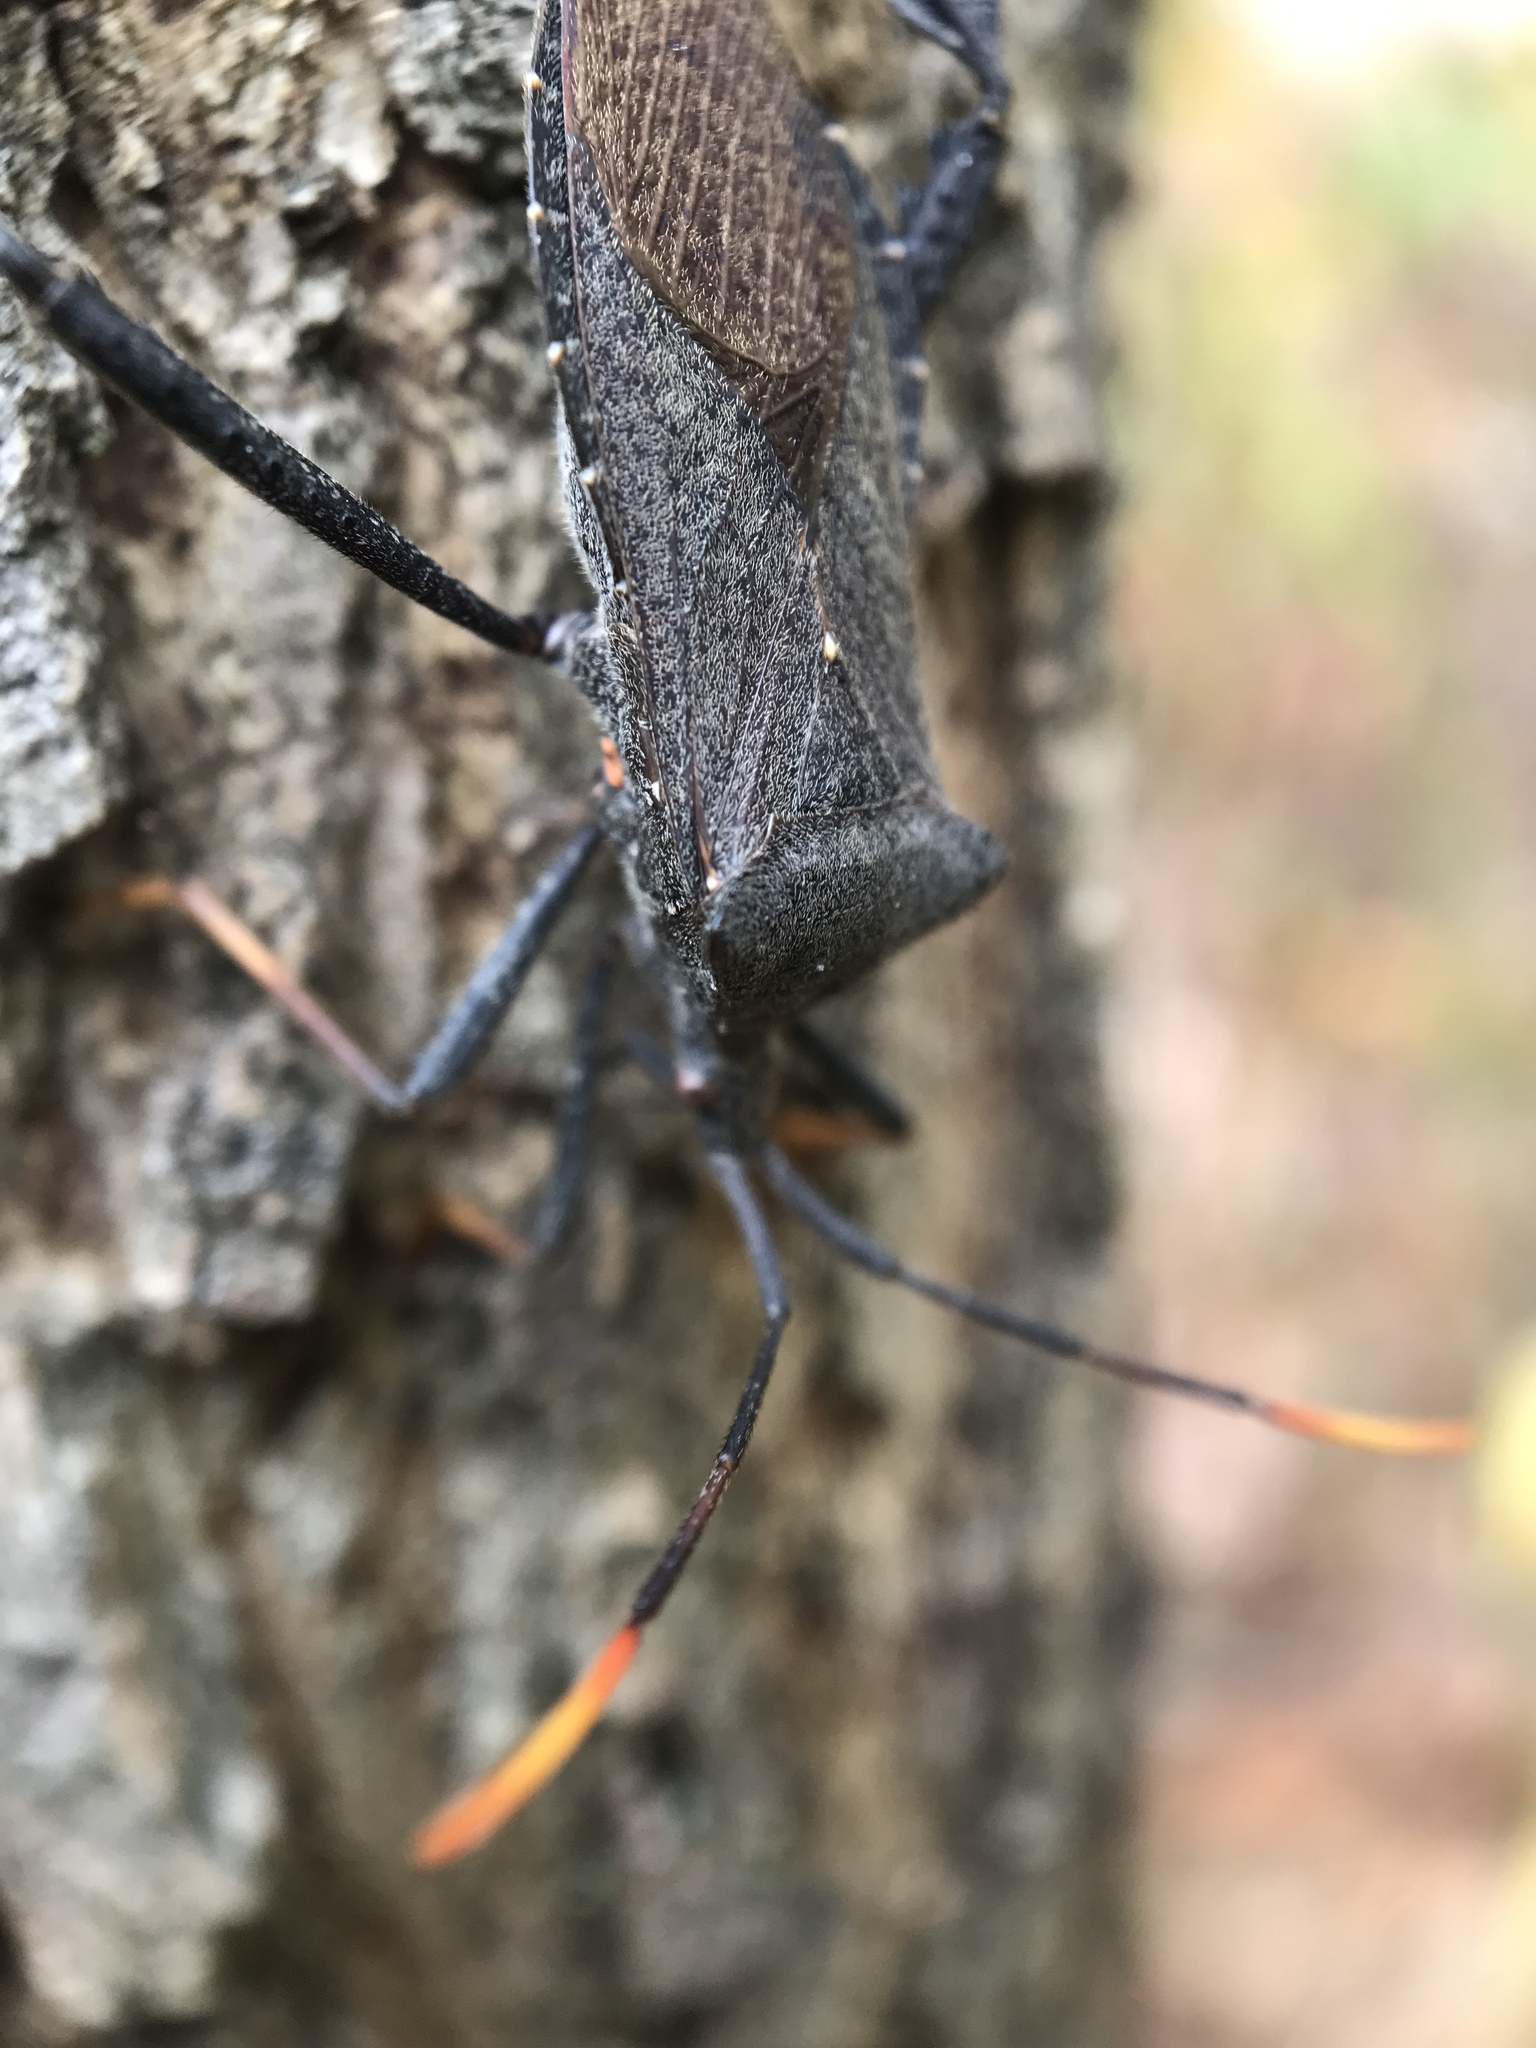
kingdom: Animalia
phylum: Arthropoda
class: Insecta
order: Hemiptera
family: Coreidae
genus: Acanthocephala
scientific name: Acanthocephala terminalis
